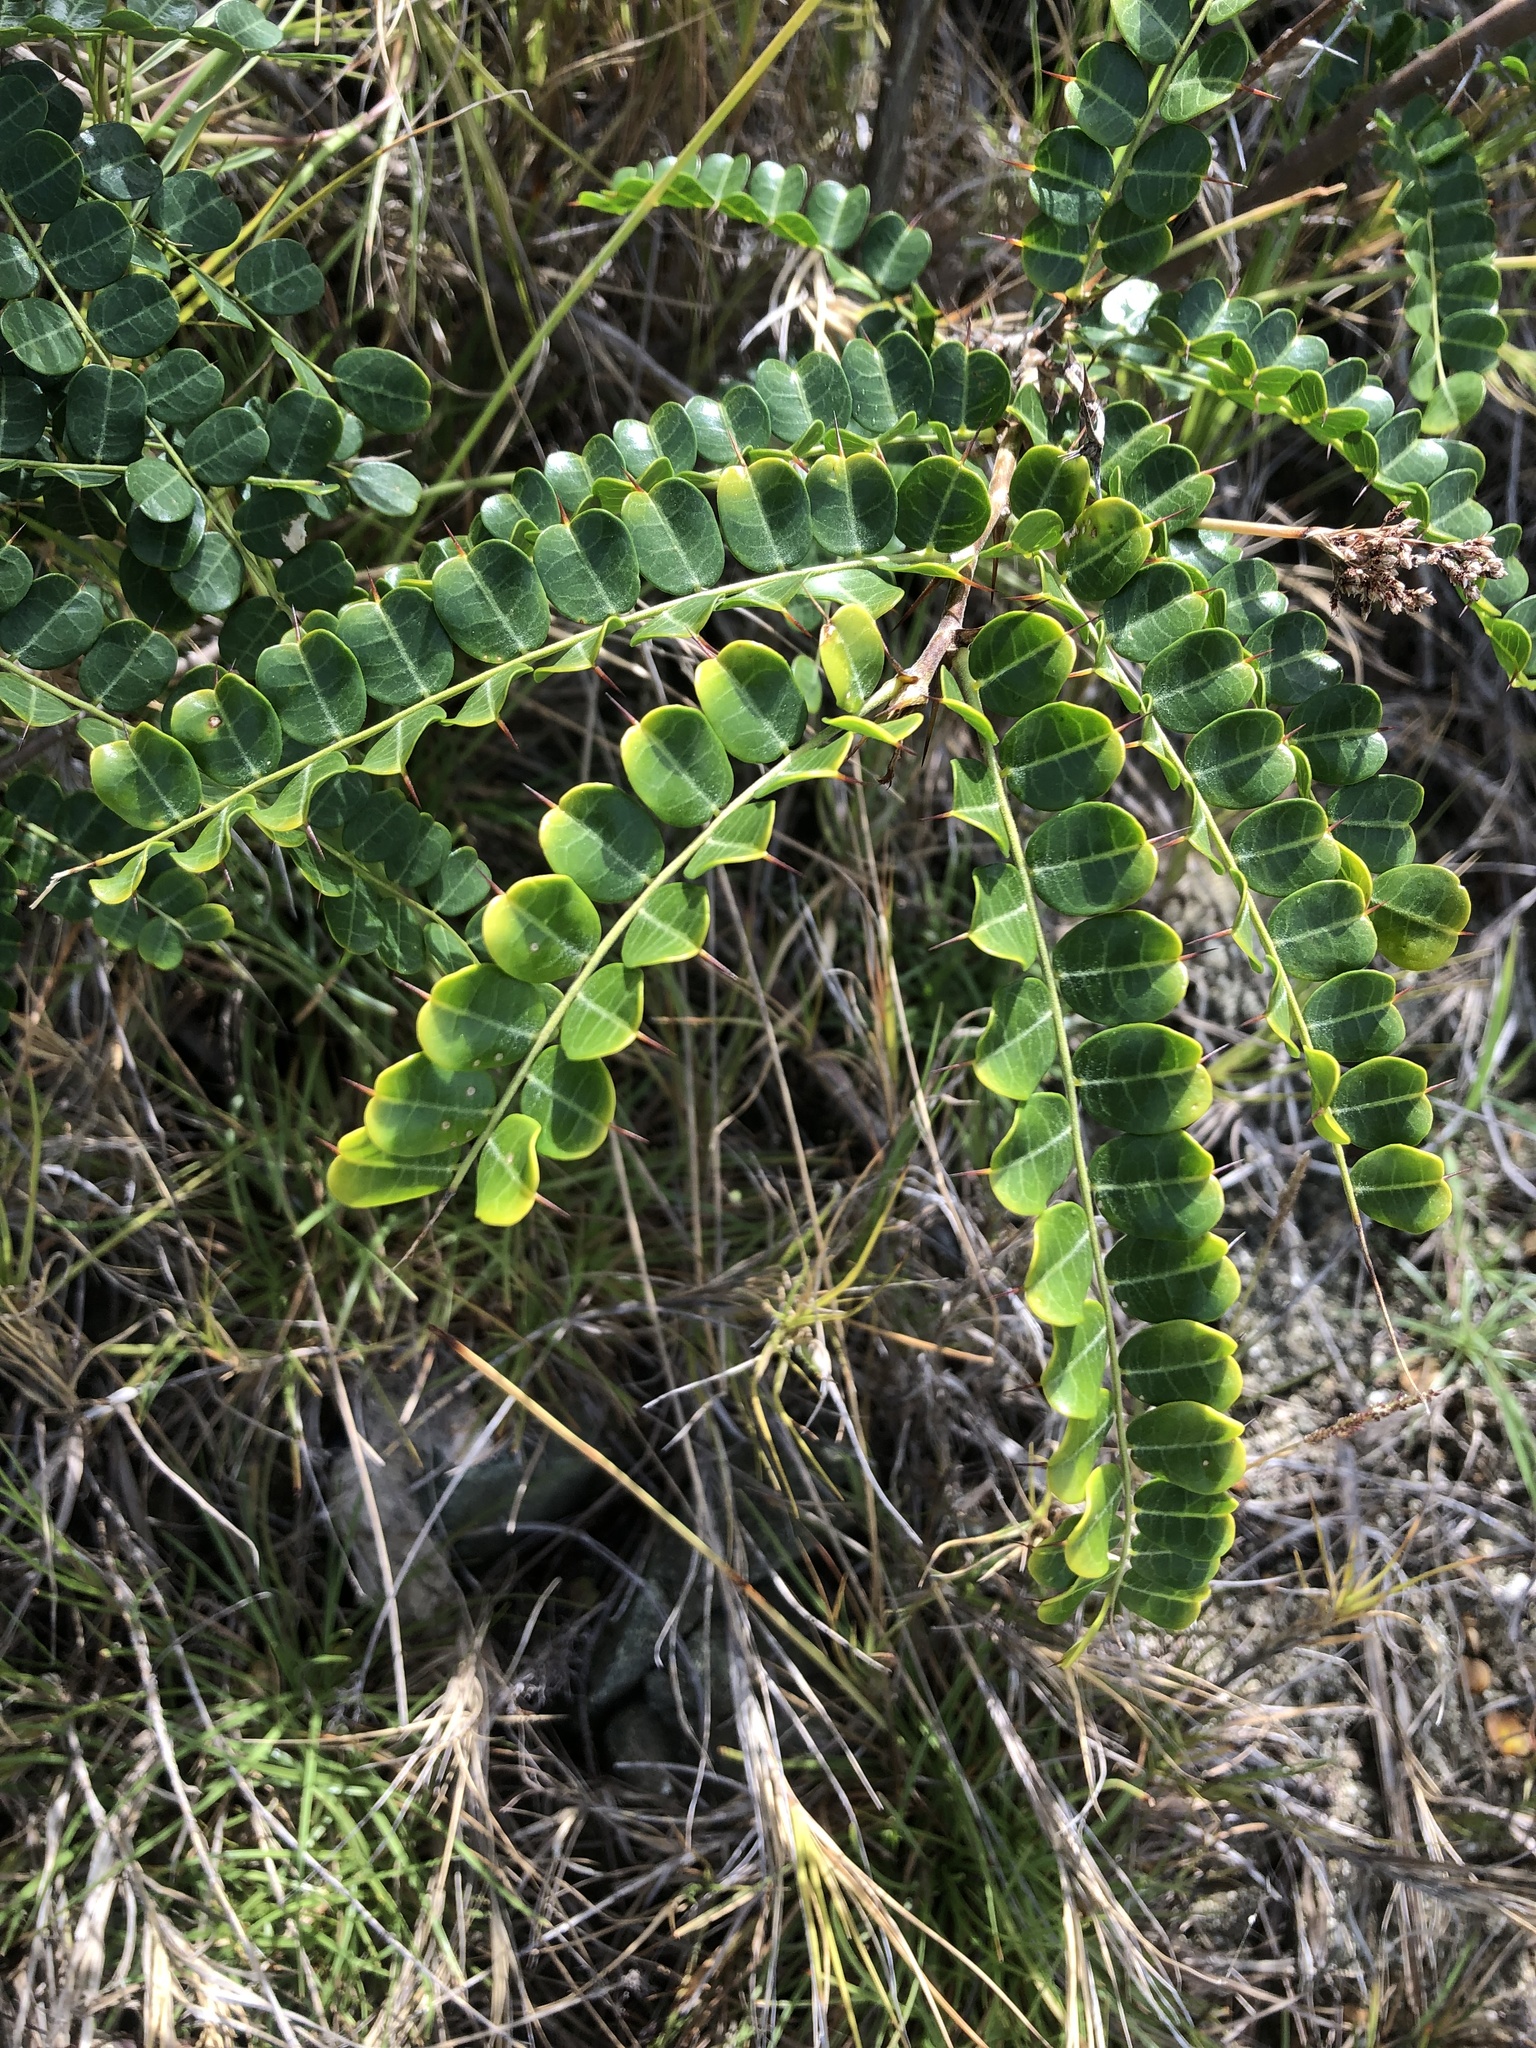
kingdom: Plantae
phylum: Tracheophyta
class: Magnoliopsida
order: Fabales
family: Fabaceae
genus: Pictetia
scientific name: Pictetia aculeata
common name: Fustic
